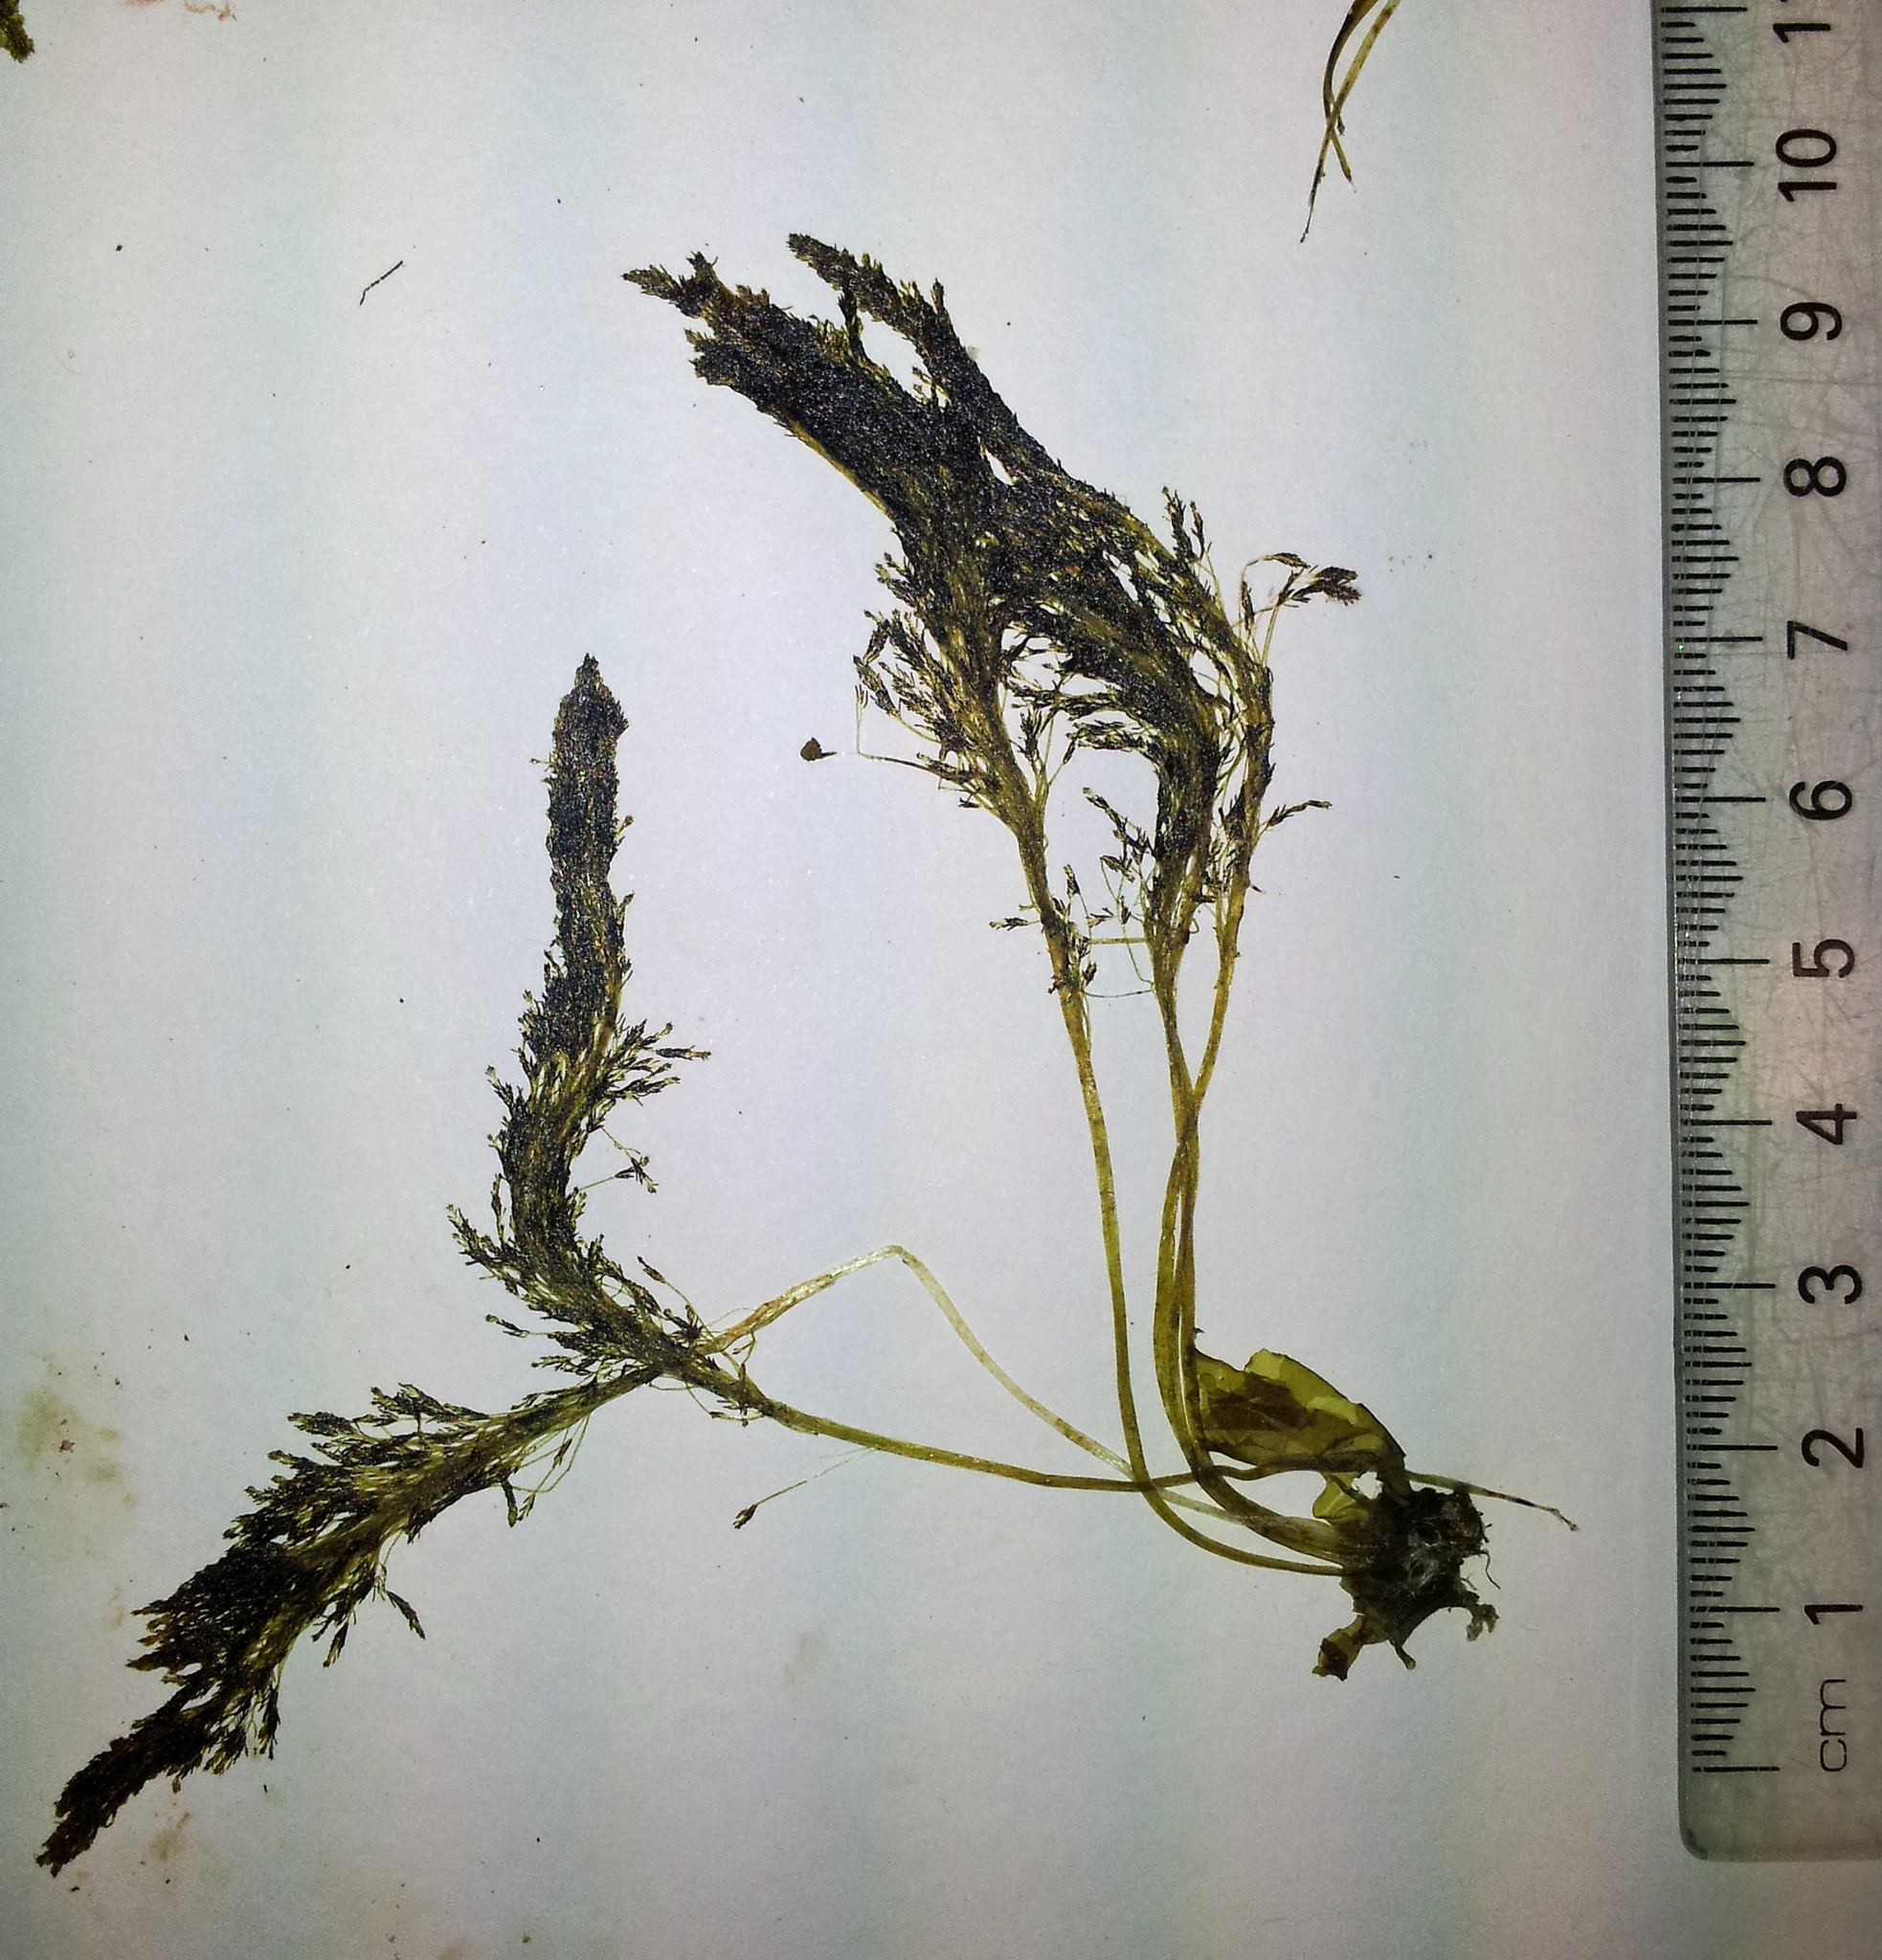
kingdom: Plantae
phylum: Chlorophyta
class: Ulvophyceae
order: Bryopsidales
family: Bryopsidaceae
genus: Bryopsis
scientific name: Bryopsis vestita
